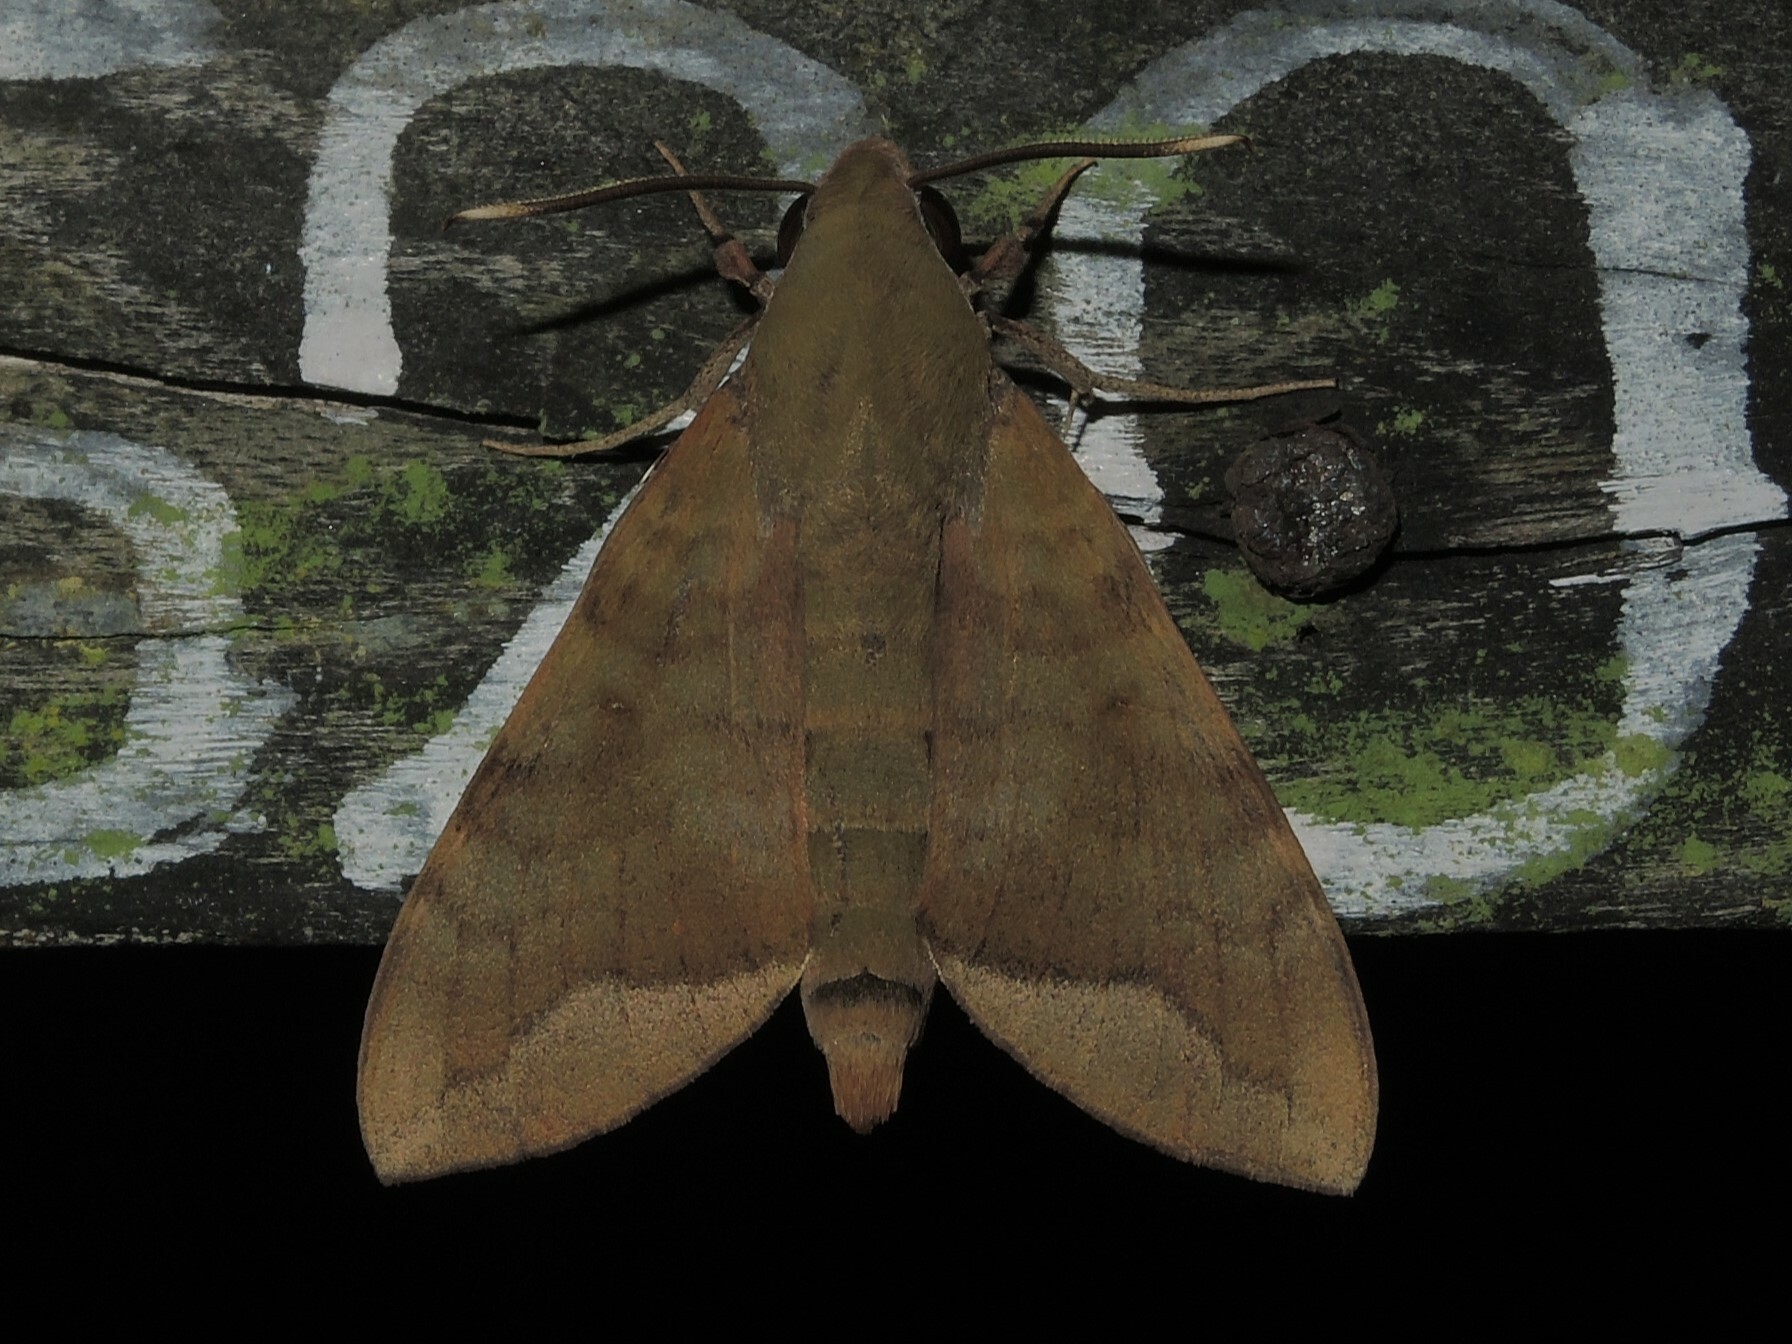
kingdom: Animalia
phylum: Arthropoda
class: Insecta
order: Lepidoptera
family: Sphingidae
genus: Nephele
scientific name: Nephele hespera
